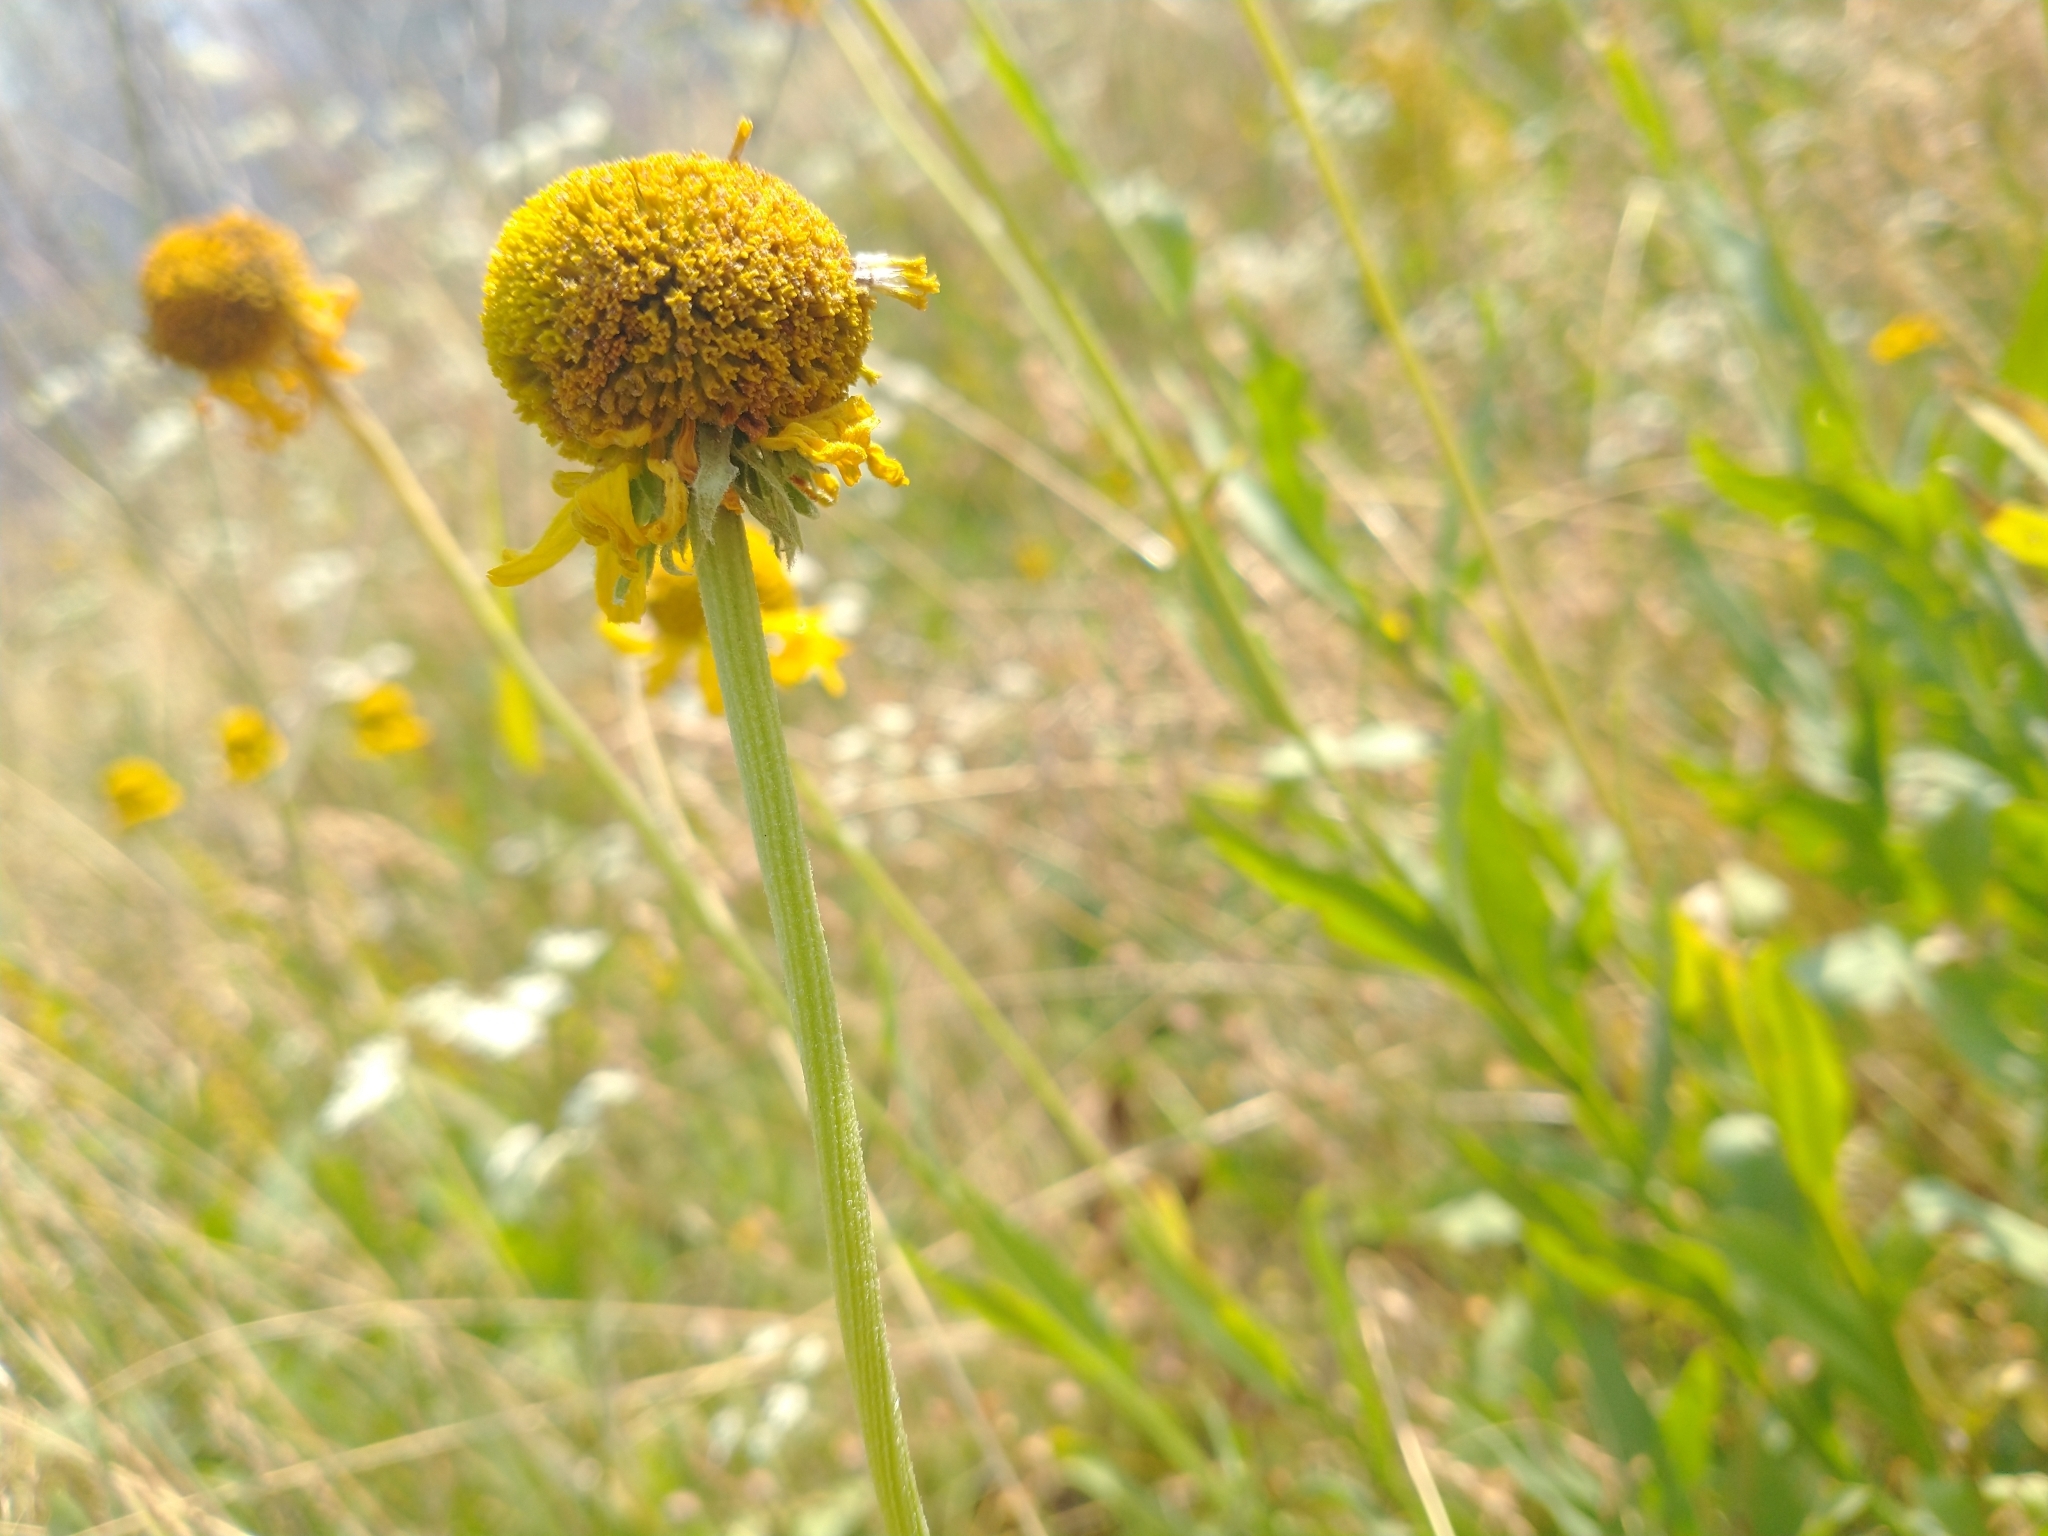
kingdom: Plantae
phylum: Tracheophyta
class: Magnoliopsida
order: Asterales
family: Asteraceae
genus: Helenium
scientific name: Helenium bigelovii
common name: Bigelow's sneezeweed
